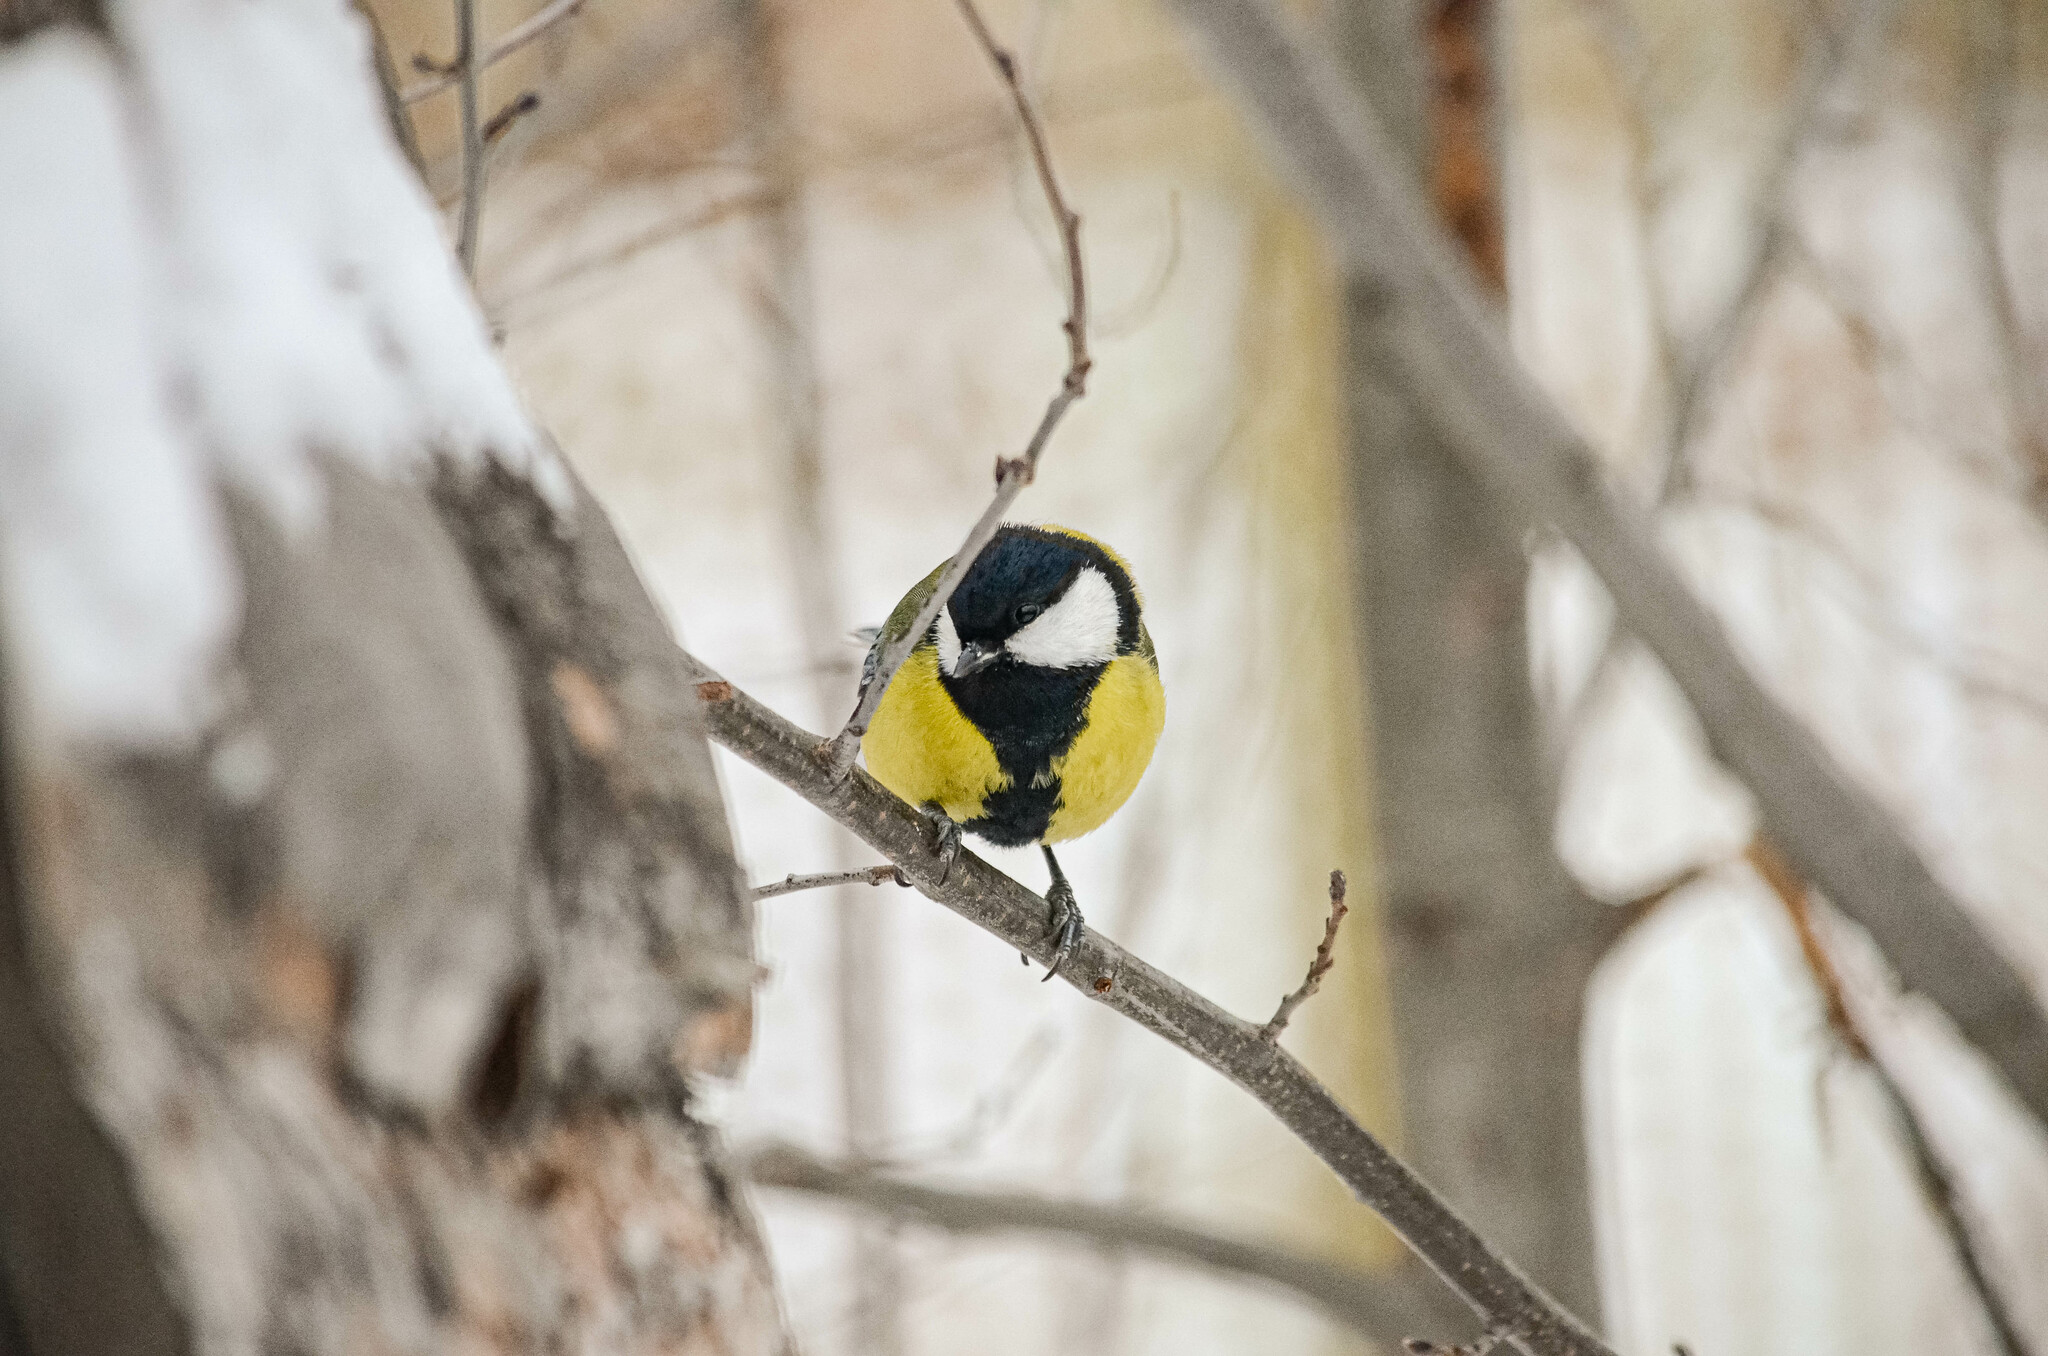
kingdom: Animalia
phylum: Chordata
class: Aves
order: Passeriformes
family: Paridae
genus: Parus
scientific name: Parus major
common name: Great tit
